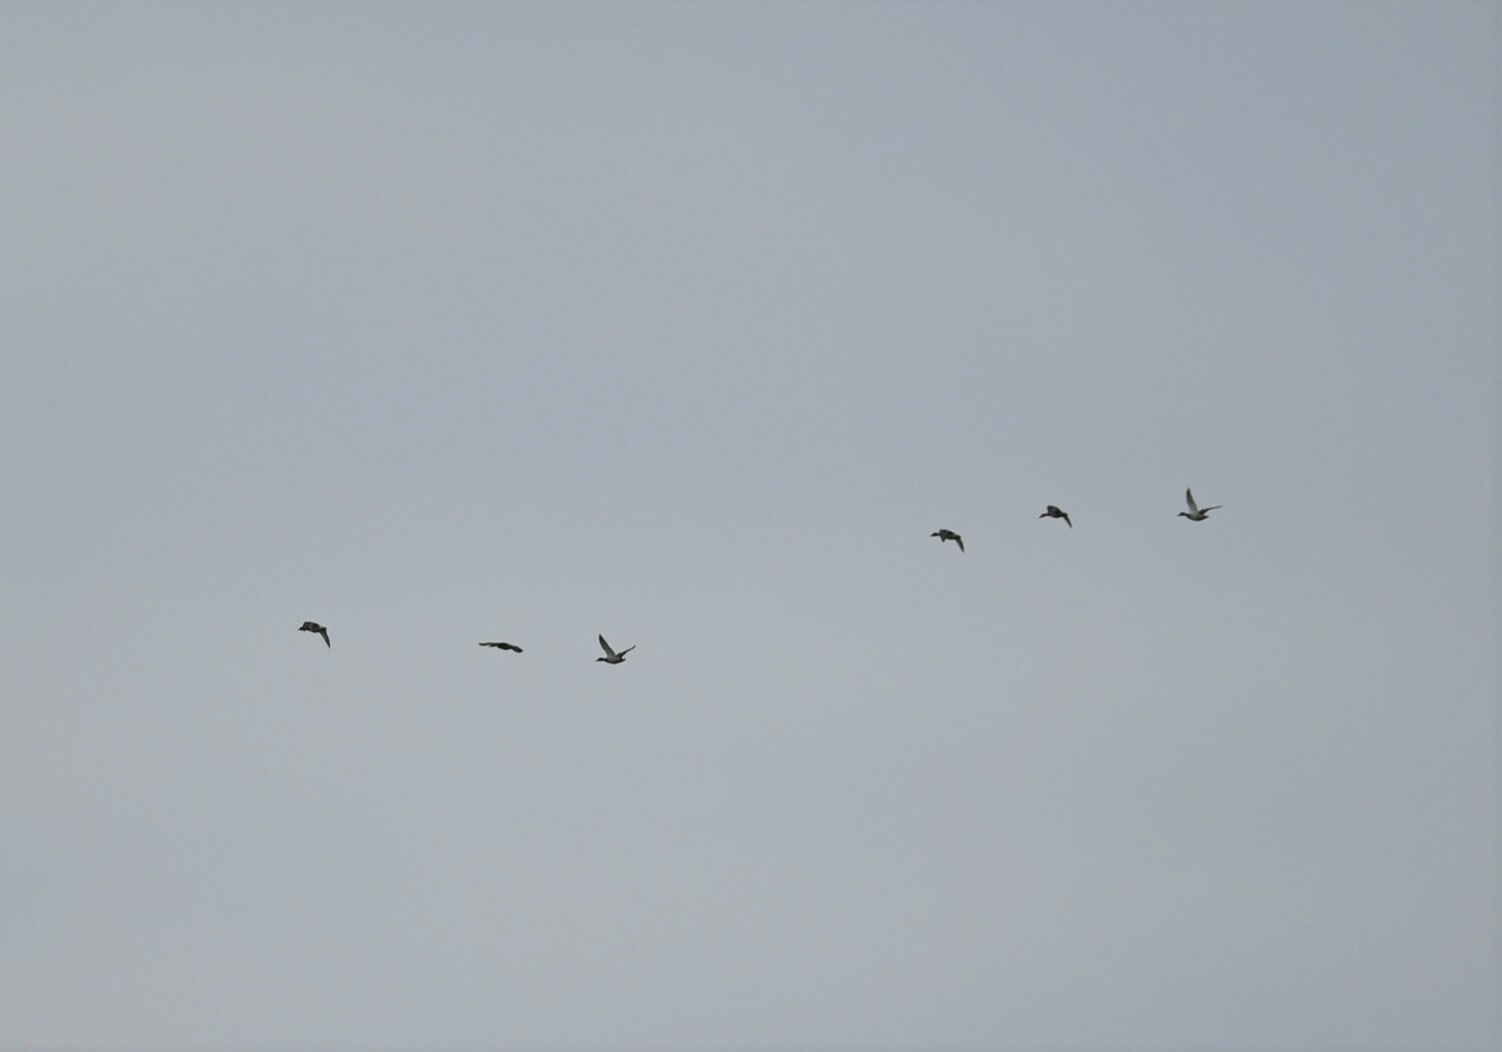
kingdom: Animalia
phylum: Chordata
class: Aves
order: Anseriformes
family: Anatidae
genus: Anas
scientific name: Anas platyrhynchos
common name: Mallard
